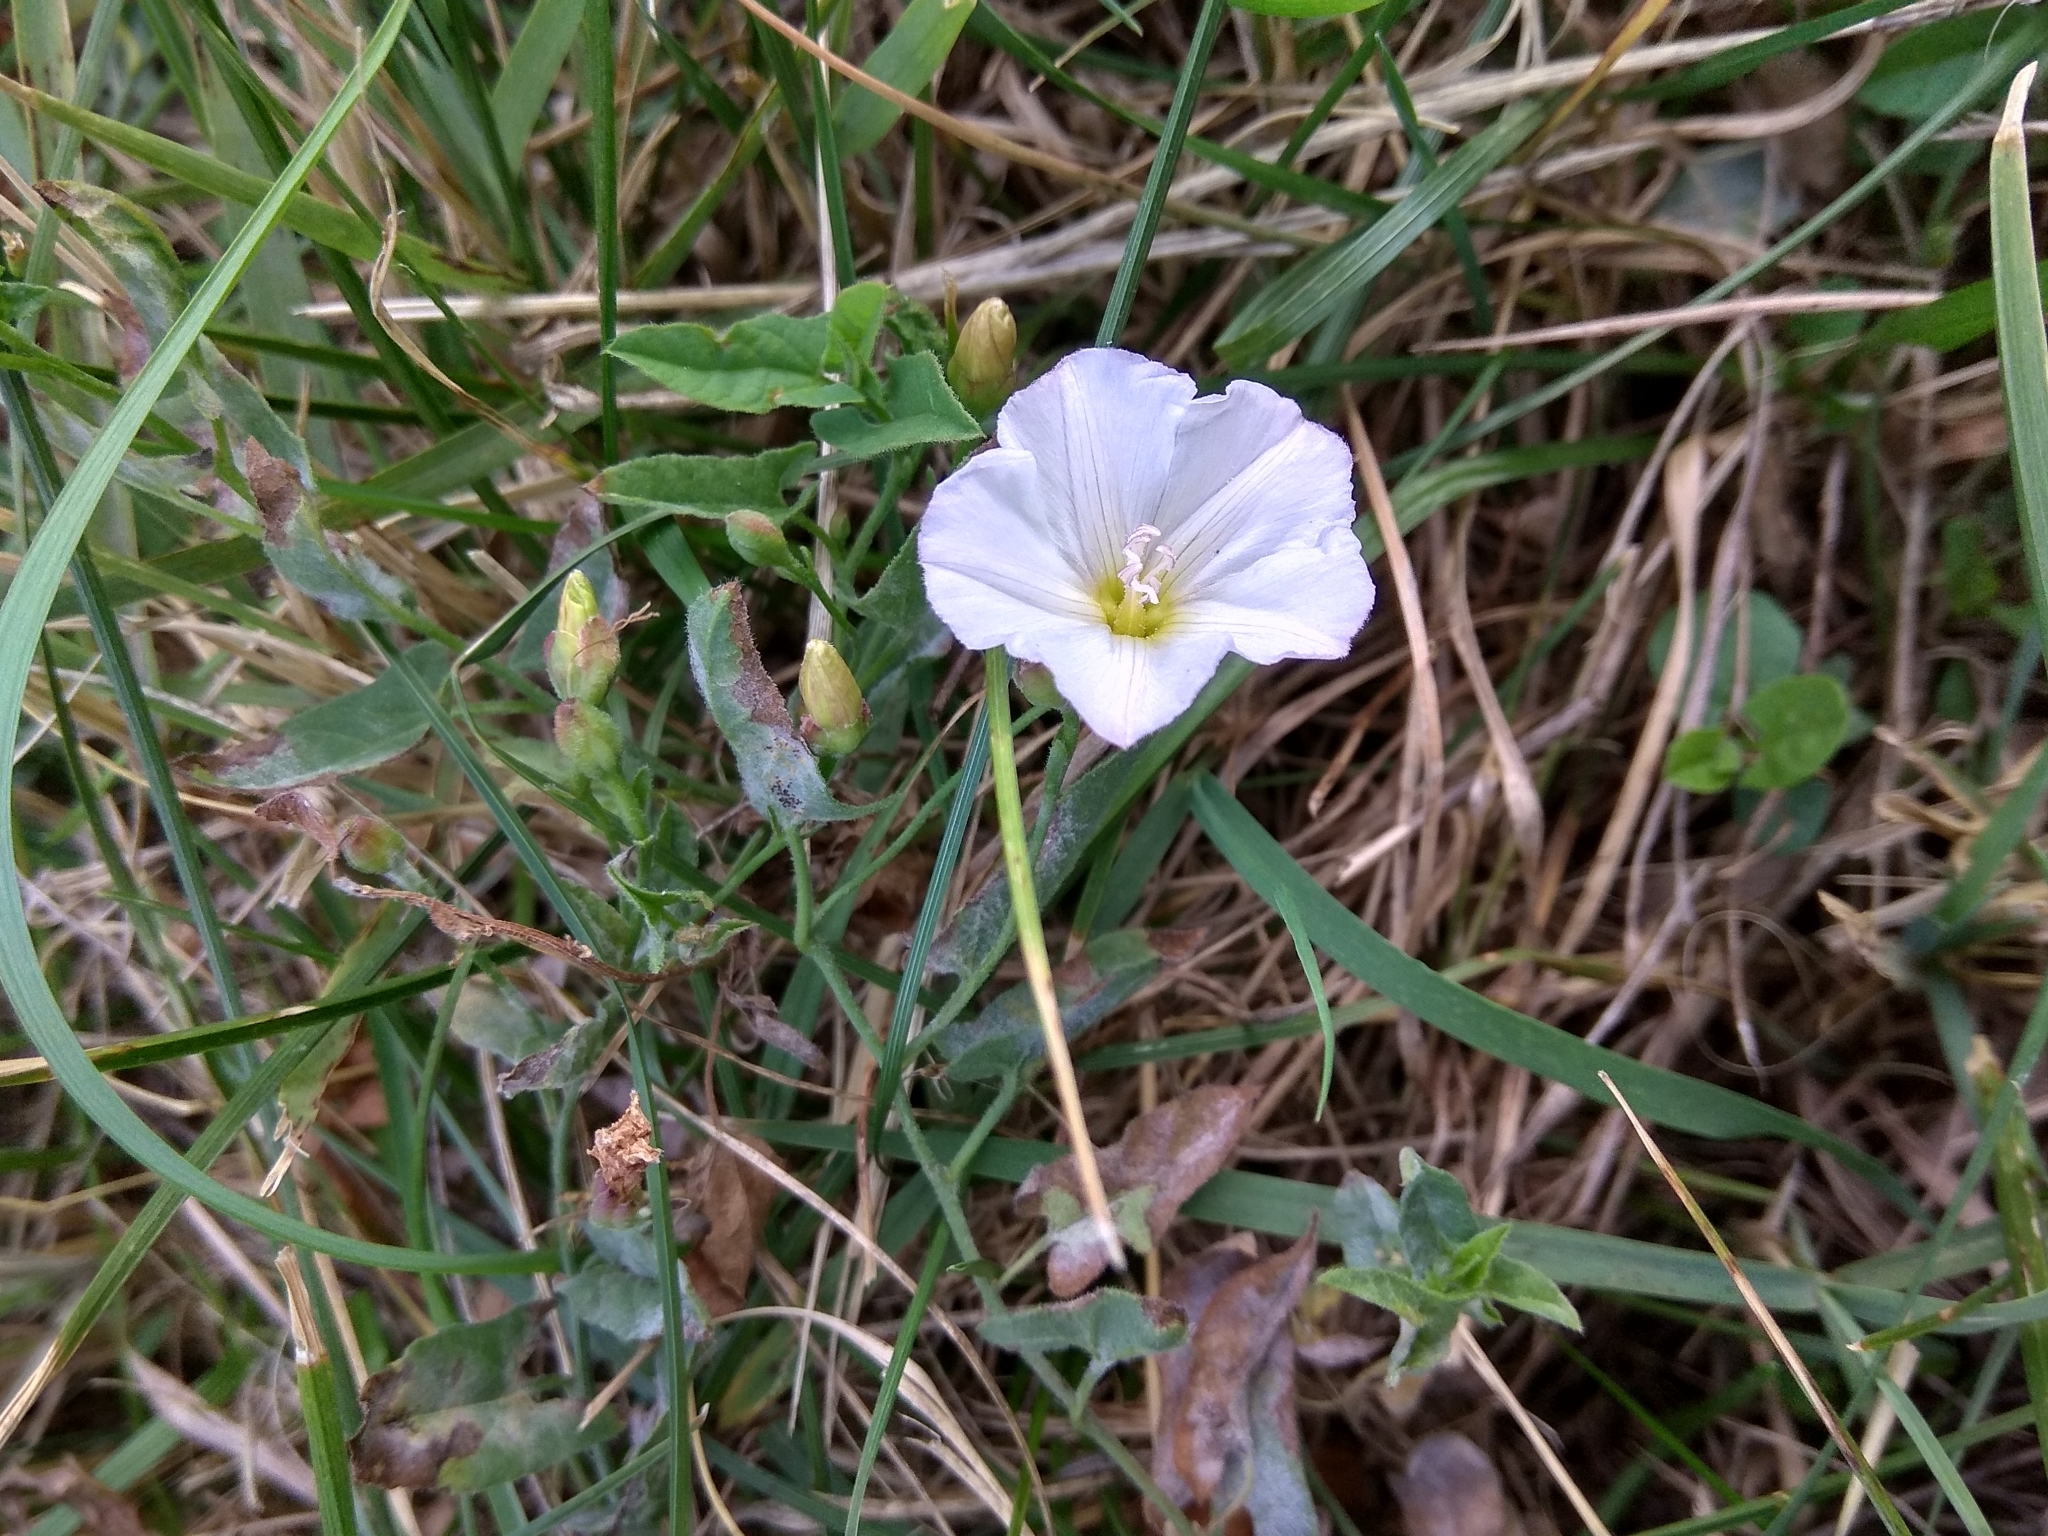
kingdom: Plantae
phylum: Tracheophyta
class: Magnoliopsida
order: Solanales
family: Convolvulaceae
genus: Convolvulus
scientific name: Convolvulus arvensis
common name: Field bindweed
